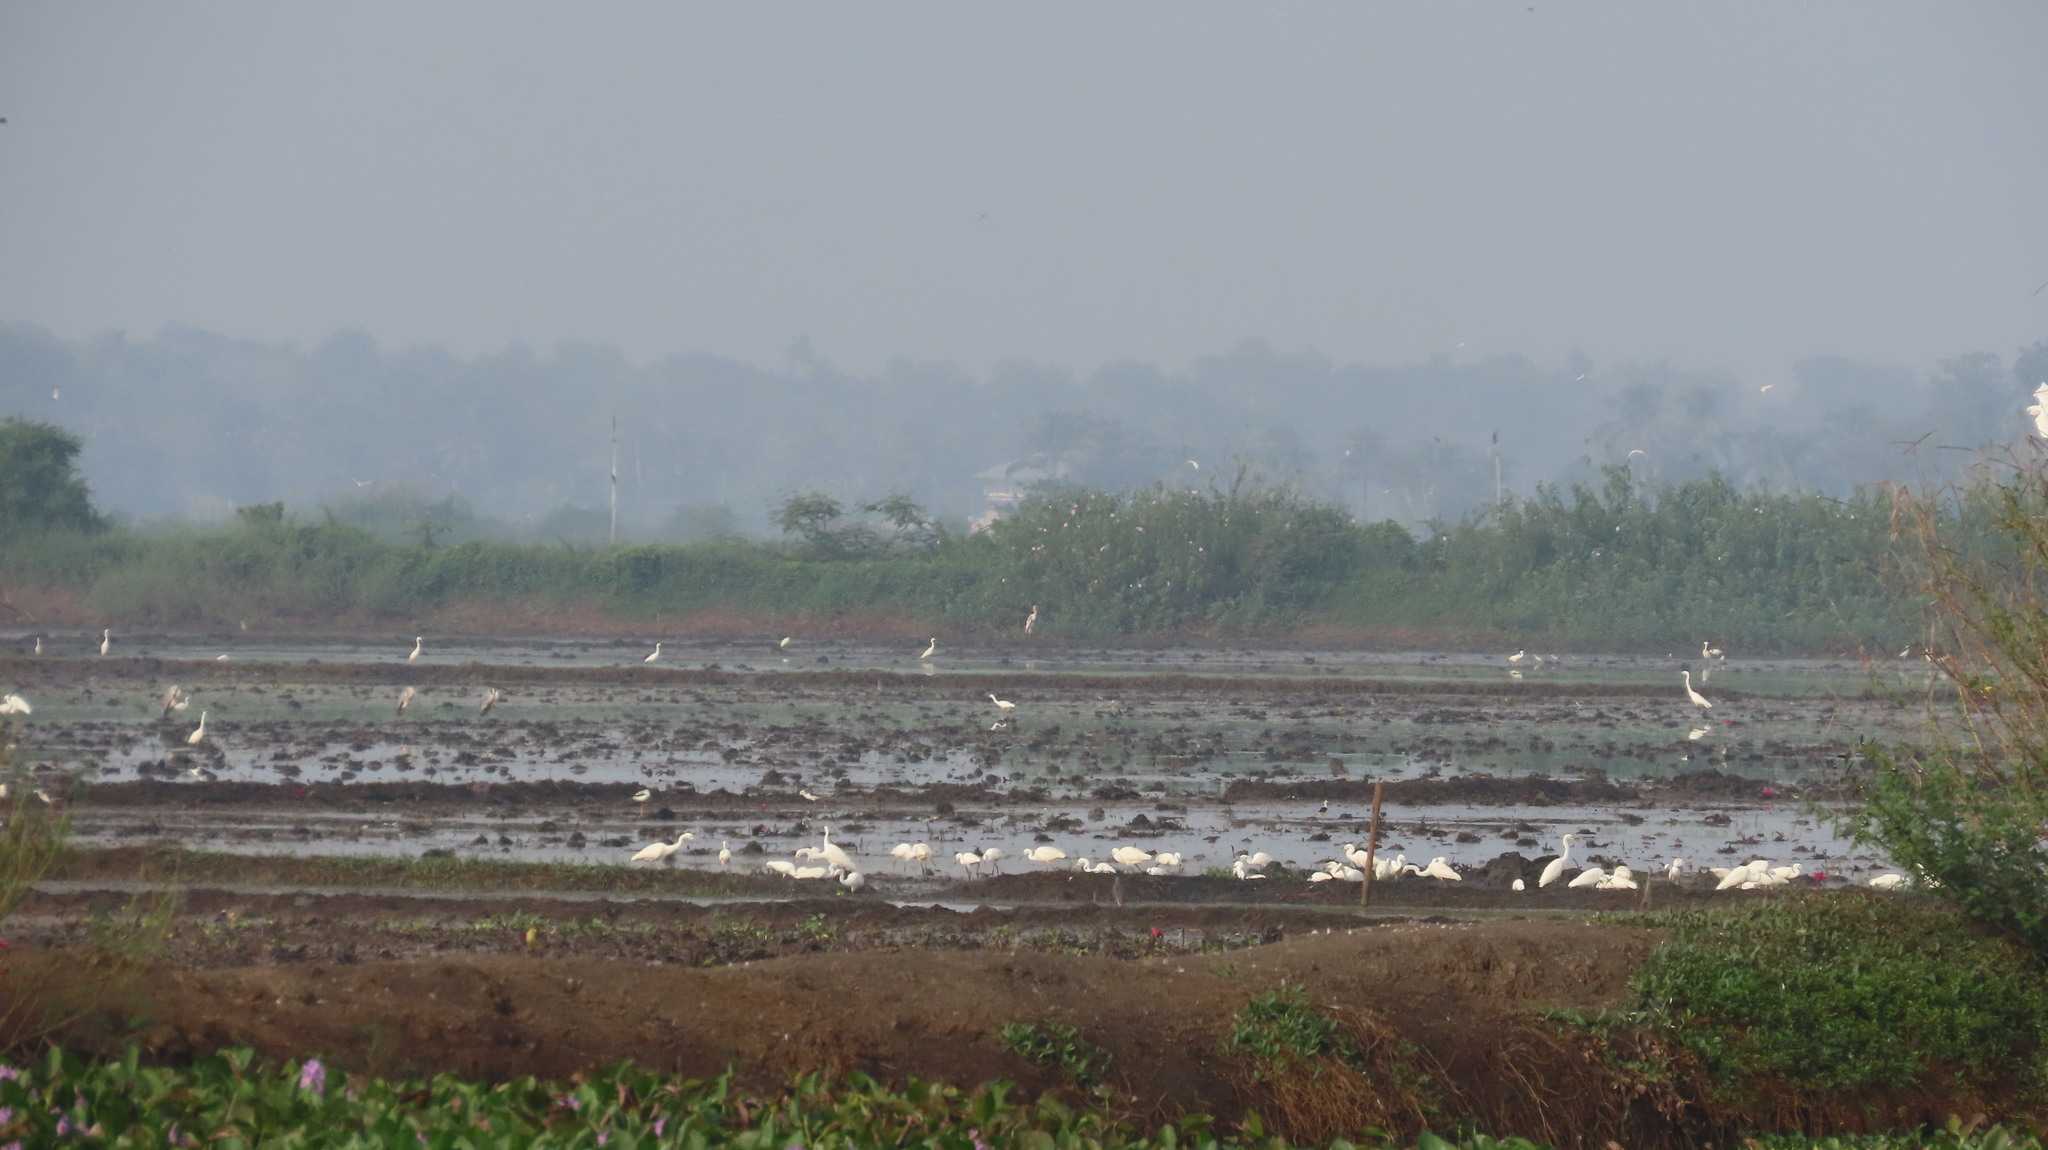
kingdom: Animalia
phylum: Chordata
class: Aves
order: Pelecaniformes
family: Ardeidae
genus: Egretta
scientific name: Egretta intermedia
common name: Intermediate egret
